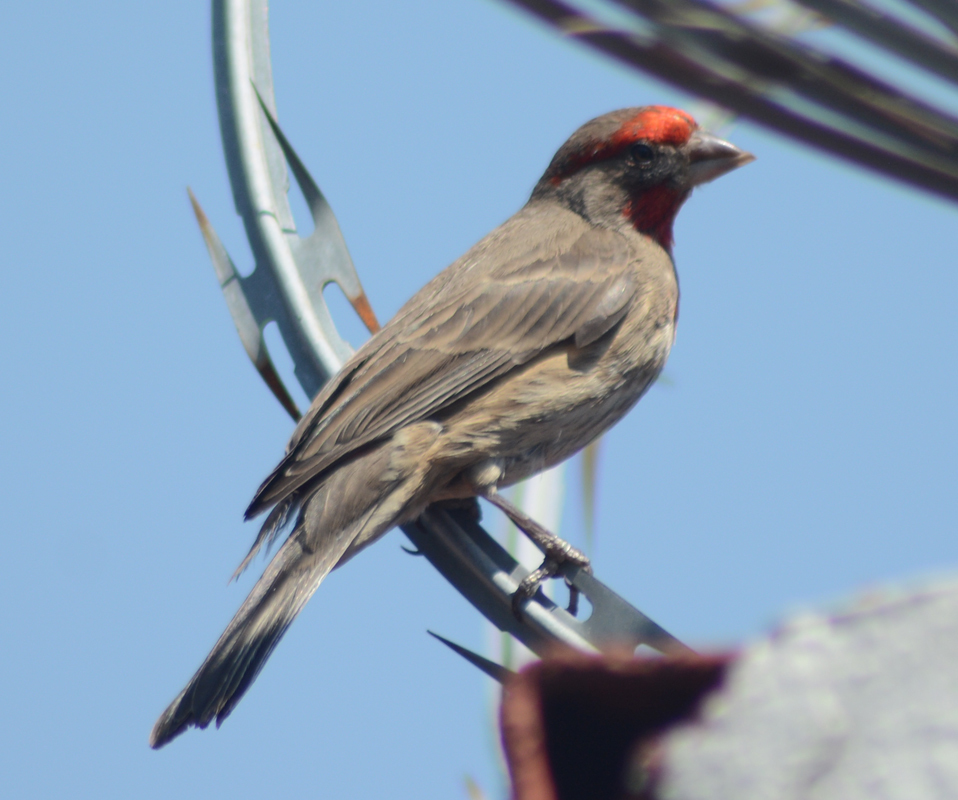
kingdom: Animalia
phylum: Chordata
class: Aves
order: Passeriformes
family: Fringillidae
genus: Haemorhous
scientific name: Haemorhous mexicanus
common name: House finch
